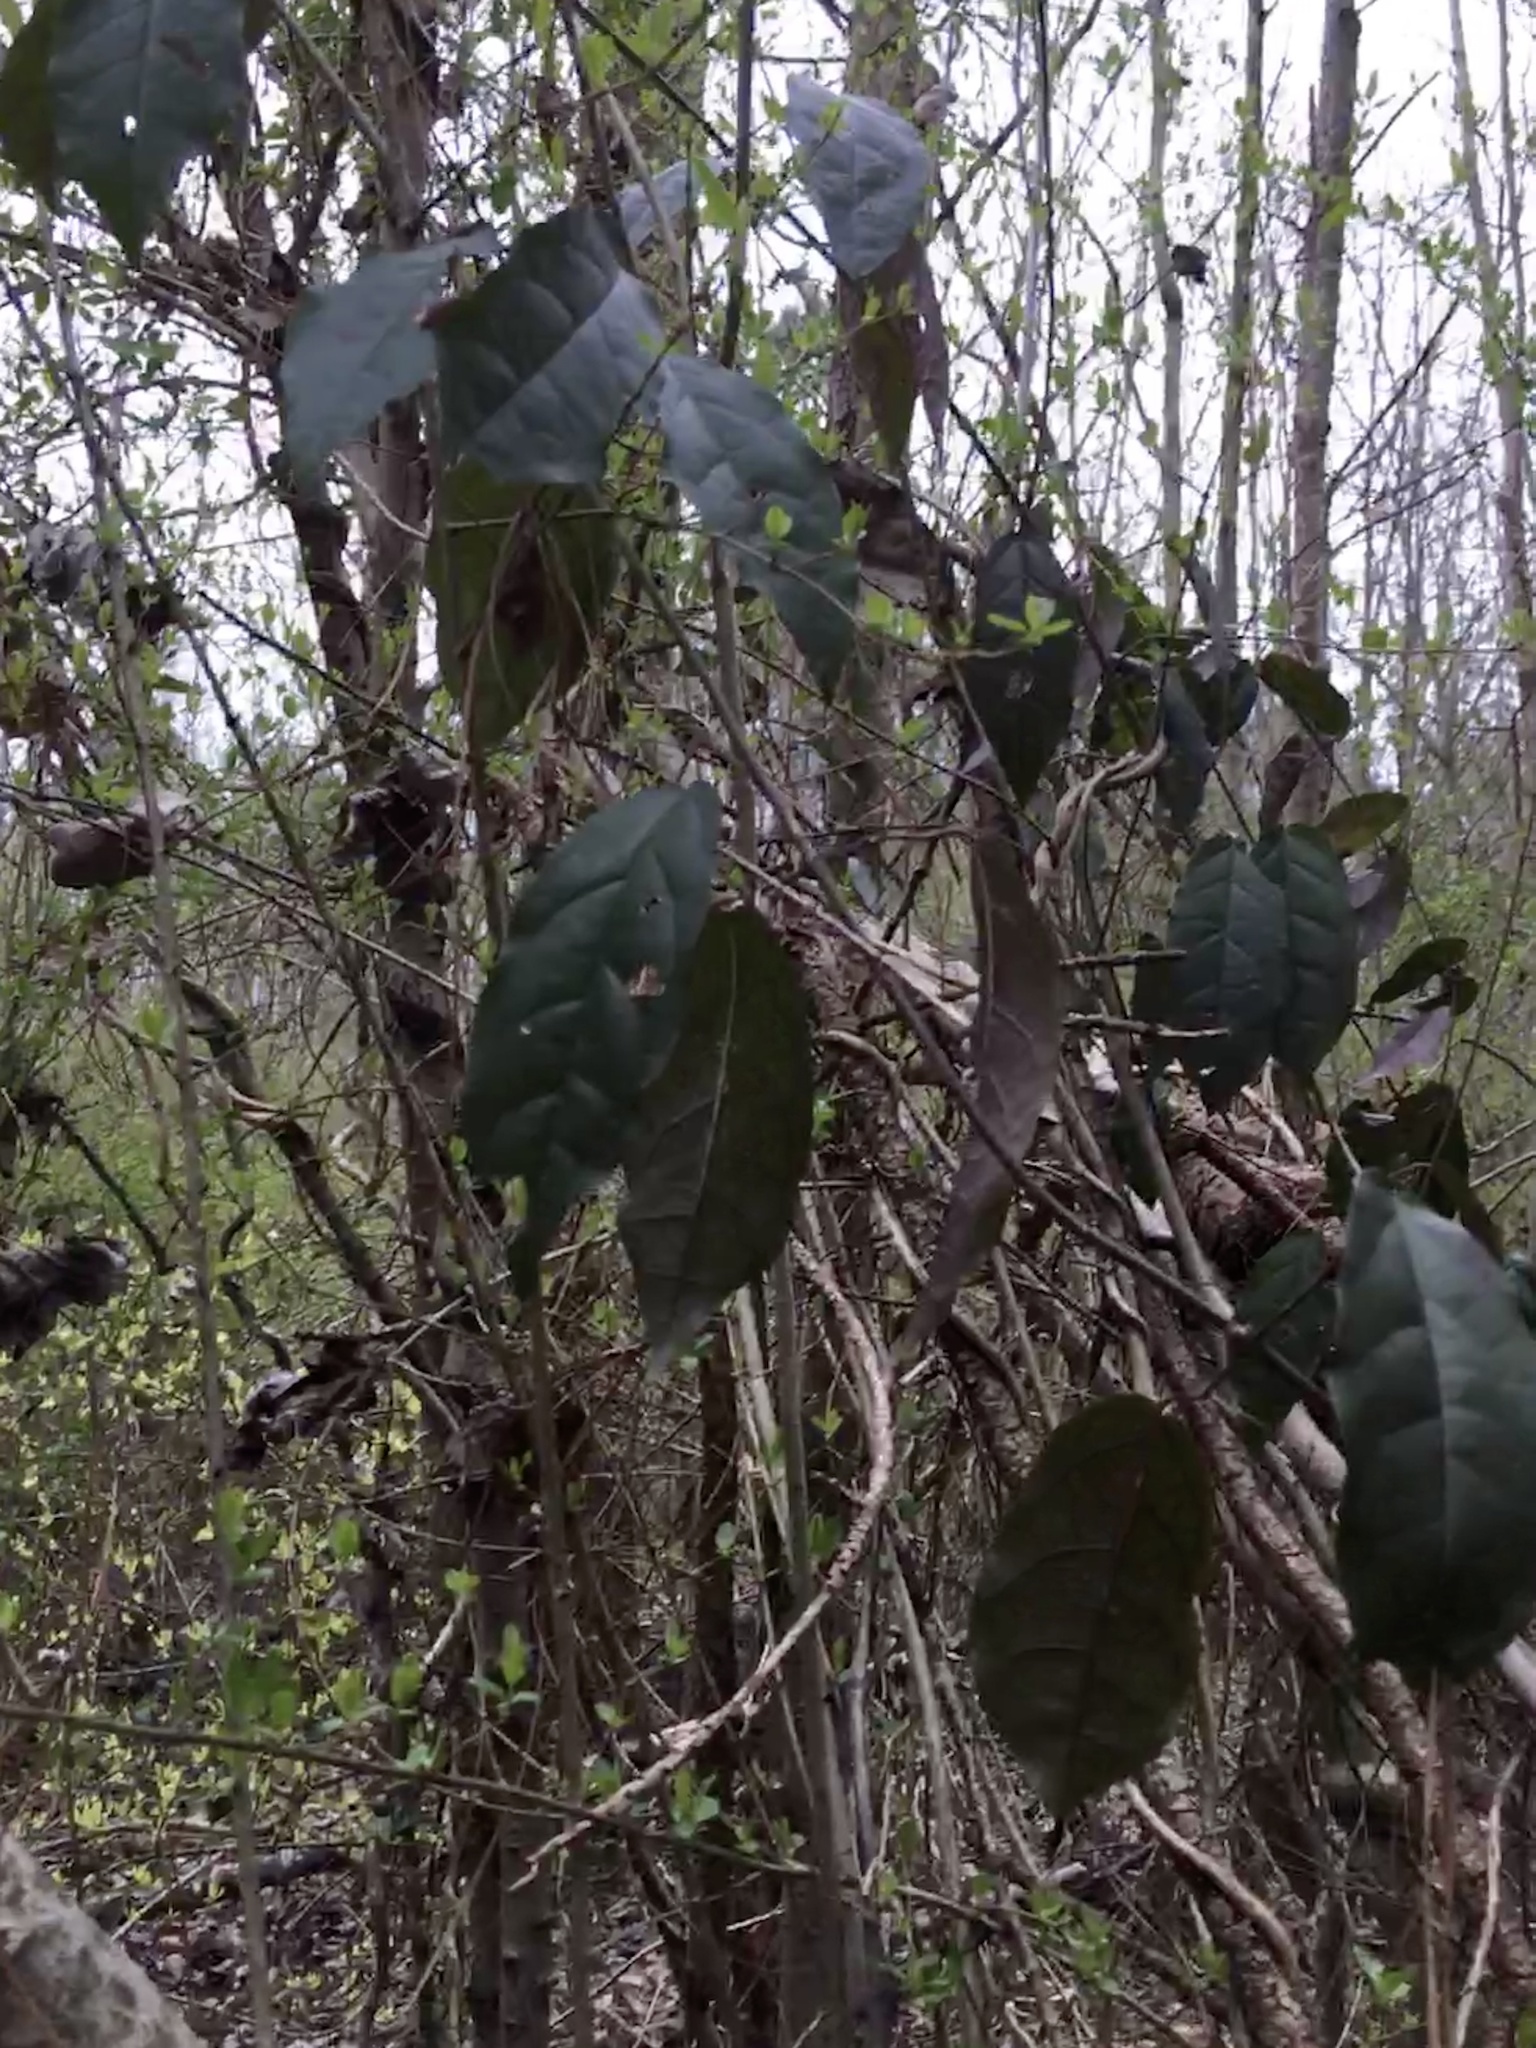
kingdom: Plantae
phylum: Tracheophyta
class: Magnoliopsida
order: Lamiales
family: Bignoniaceae
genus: Bignonia
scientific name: Bignonia capreolata
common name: Crossvine
